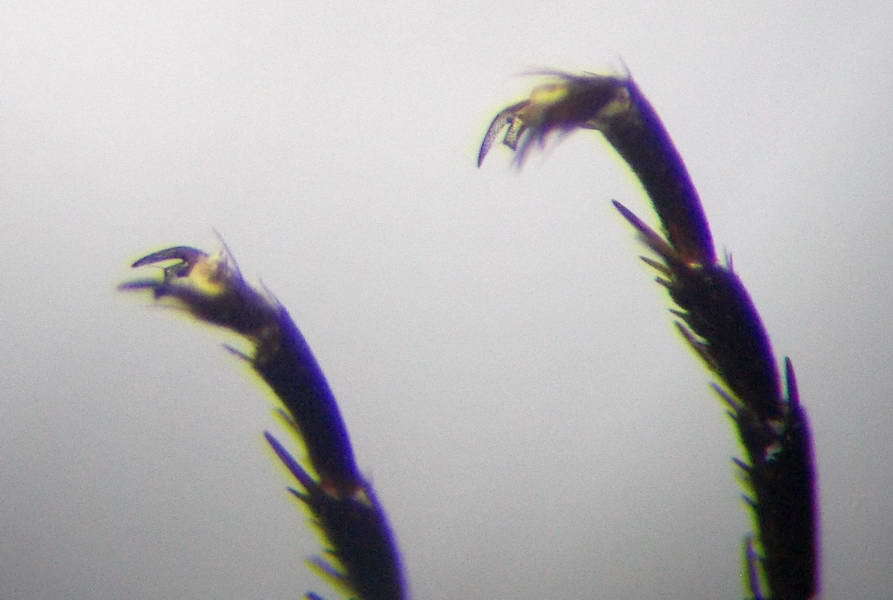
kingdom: Animalia
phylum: Arthropoda
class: Insecta
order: Hymenoptera
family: Pompilidae
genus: Telostegus
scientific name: Telostegus inermis
